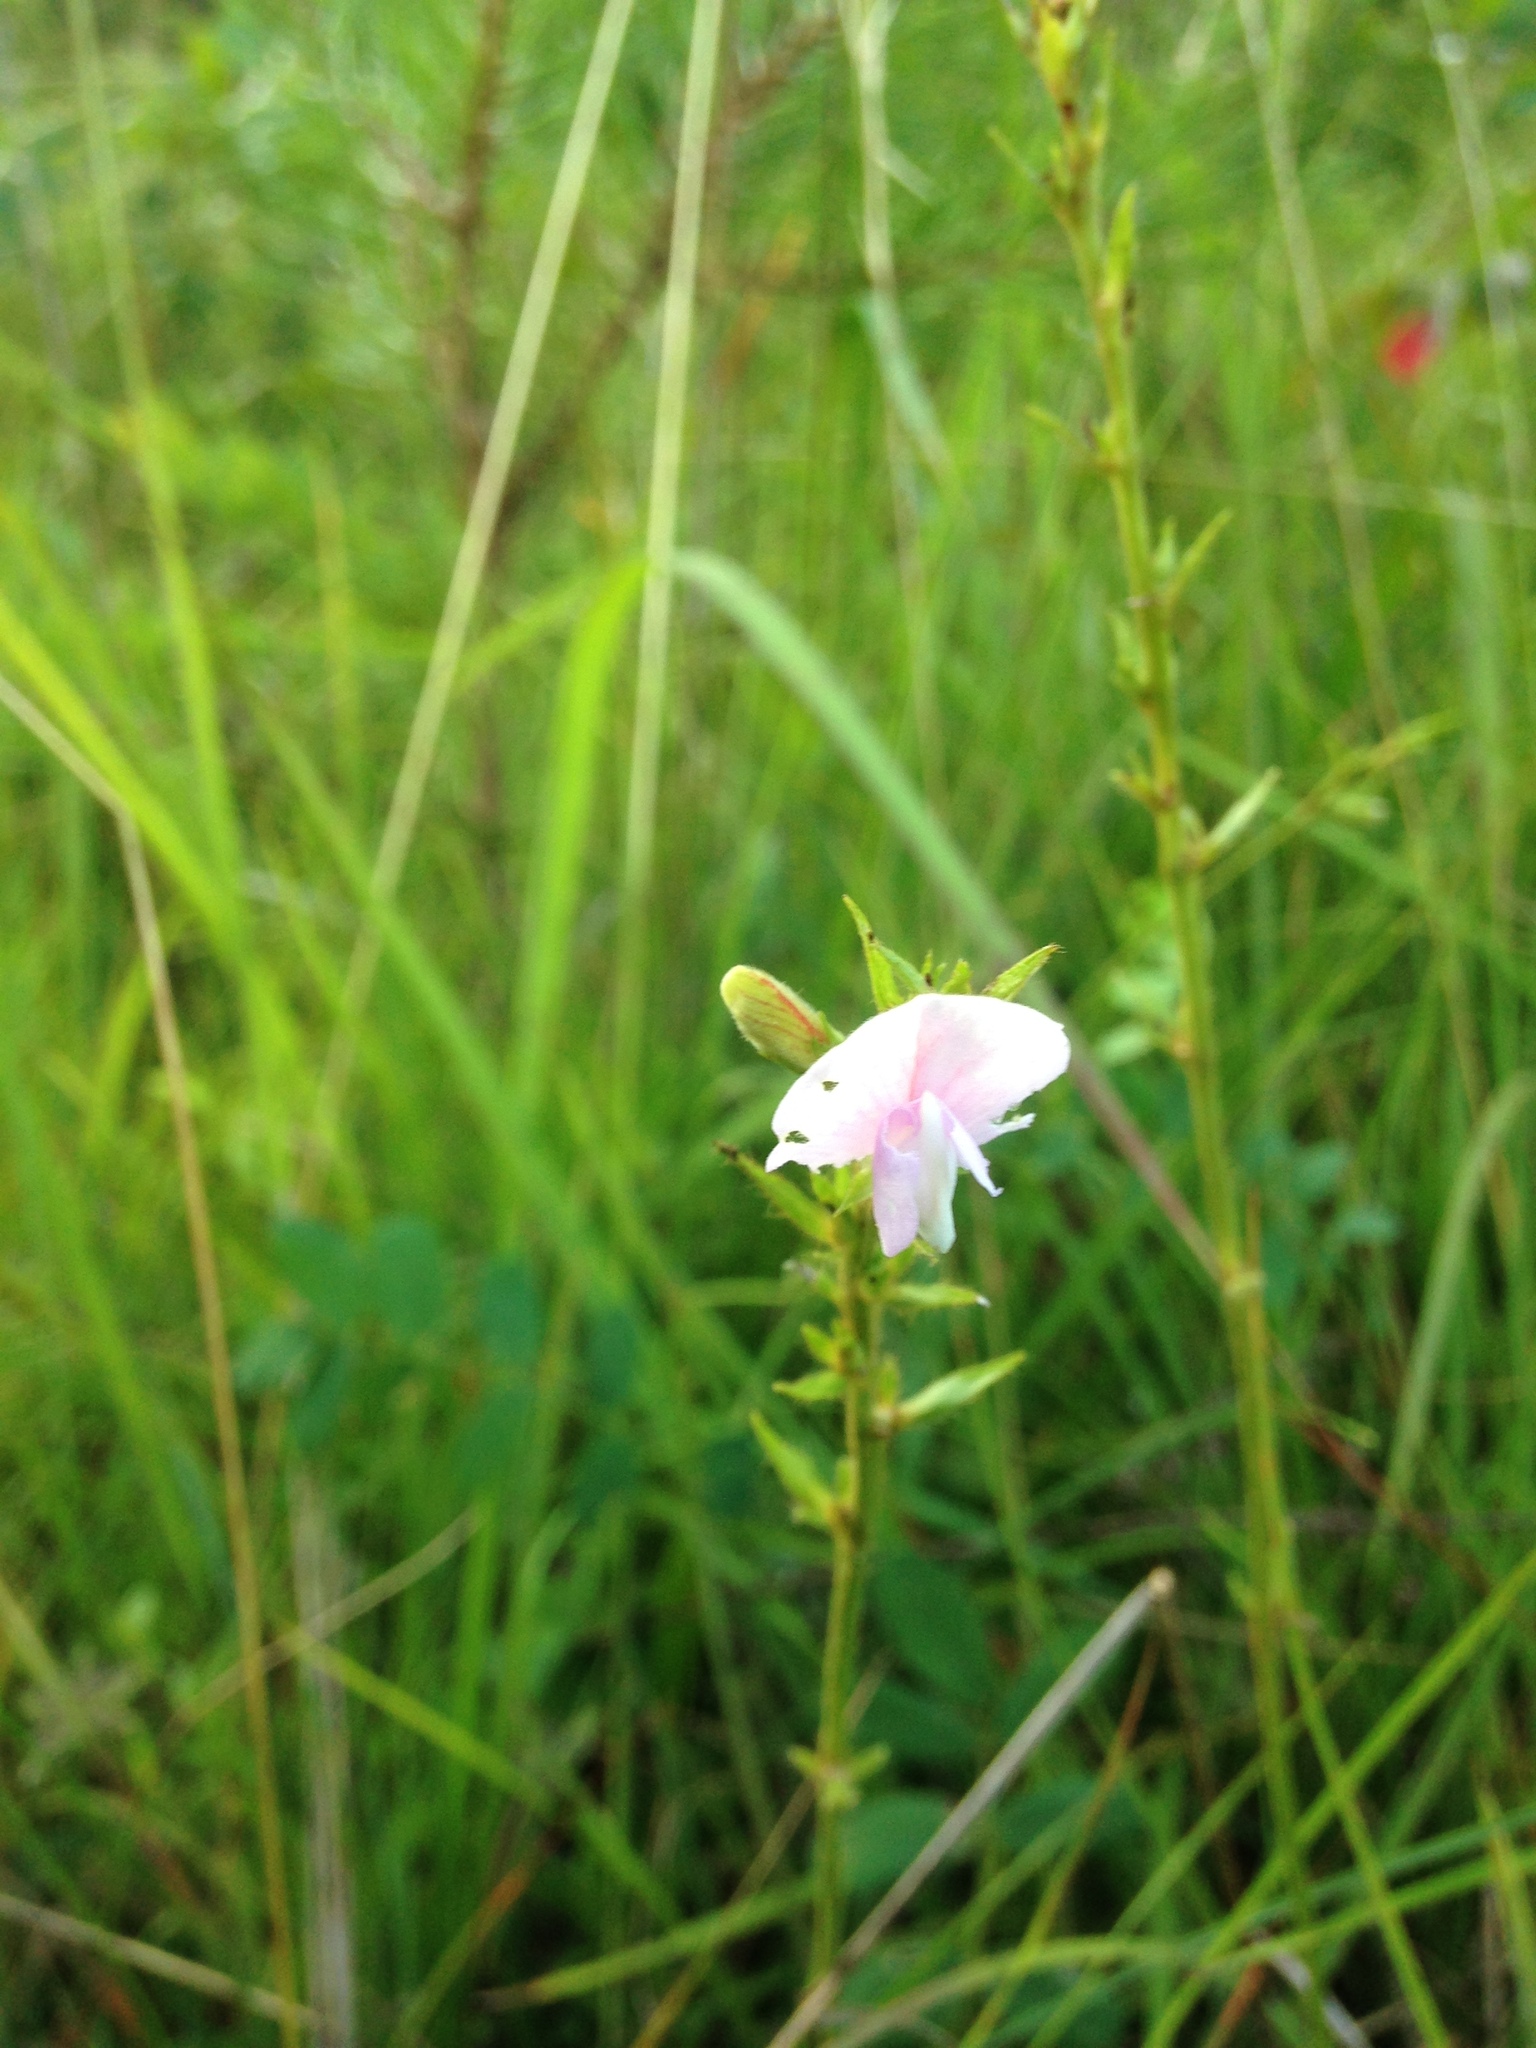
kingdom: Plantae
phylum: Tracheophyta
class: Magnoliopsida
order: Fabales
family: Fabaceae
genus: Tephrosia
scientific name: Tephrosia spicata
